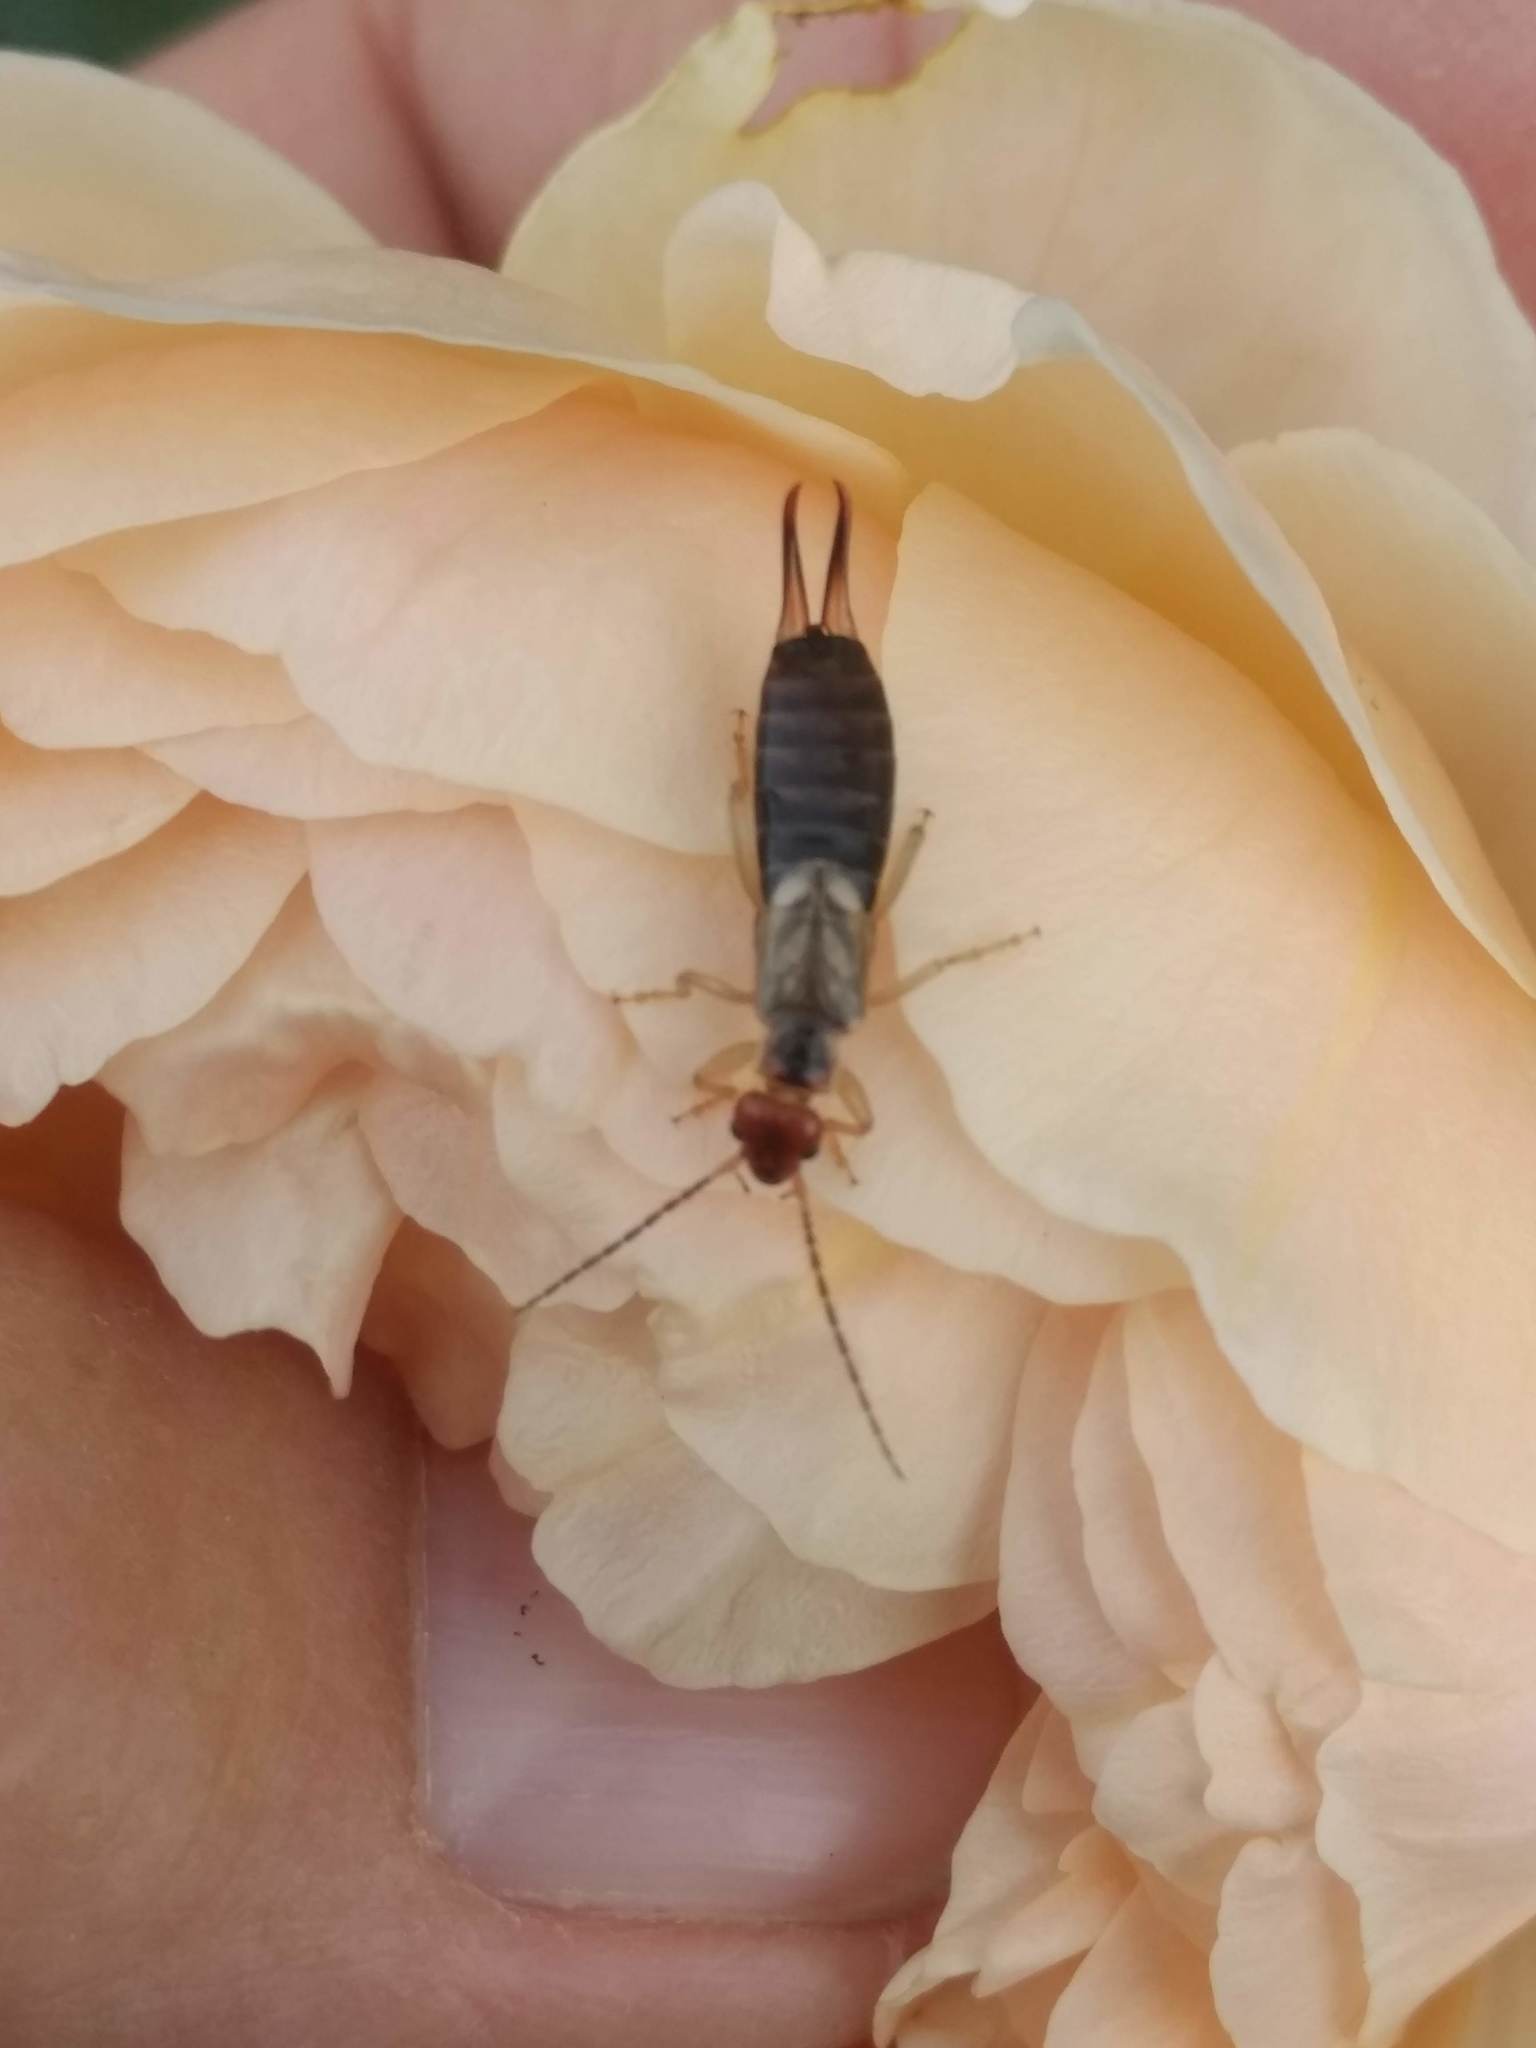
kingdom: Animalia
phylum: Arthropoda
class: Insecta
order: Dermaptera
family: Forficulidae
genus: Forficula
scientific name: Forficula
